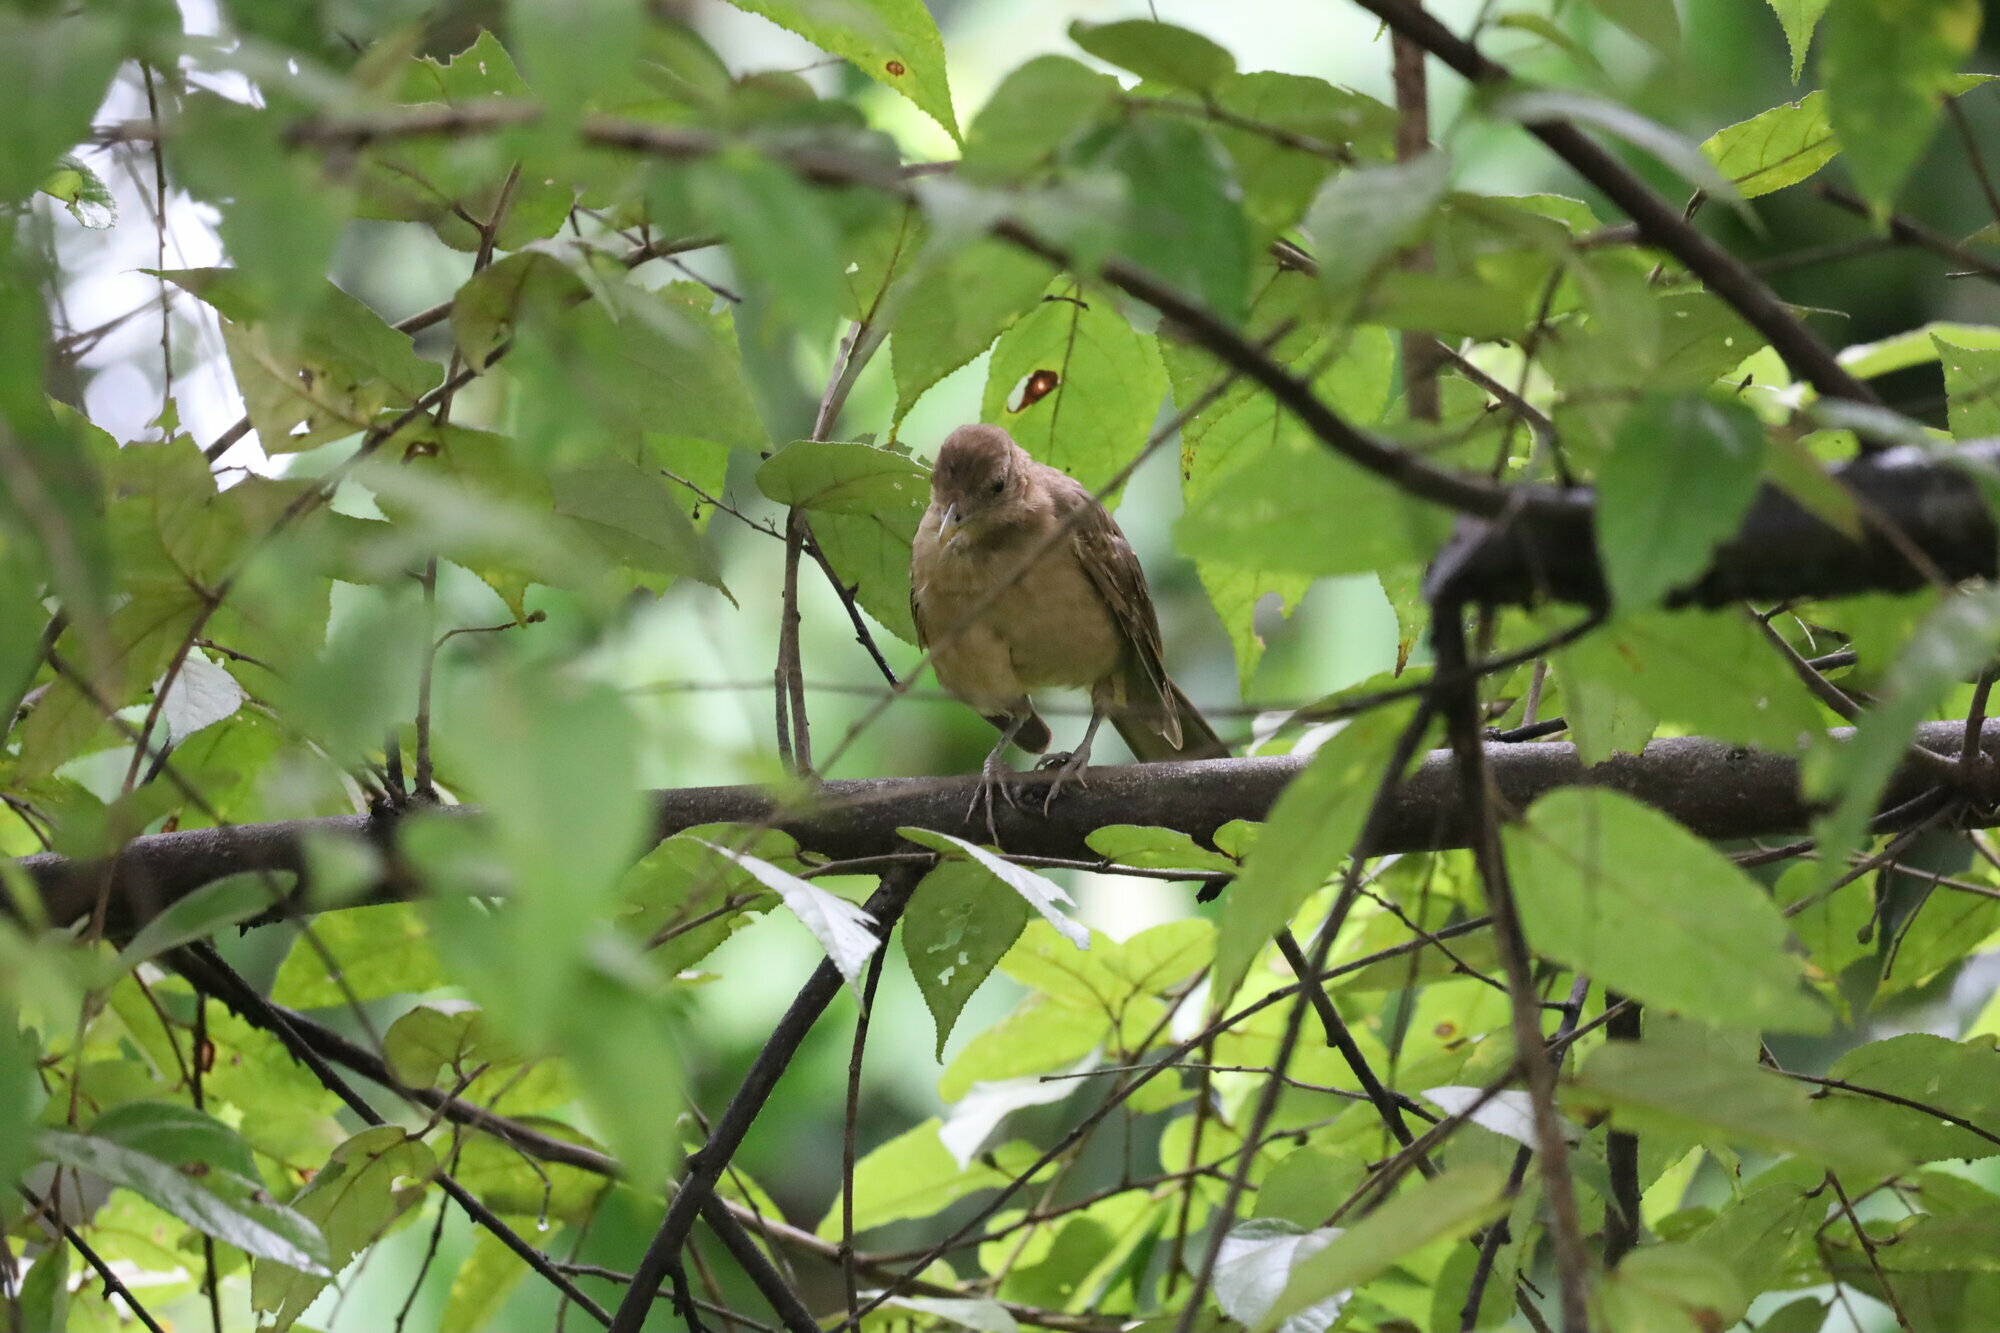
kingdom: Animalia
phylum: Chordata
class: Aves
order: Passeriformes
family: Turdidae
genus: Turdus
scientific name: Turdus grayi
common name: Clay-colored thrush
